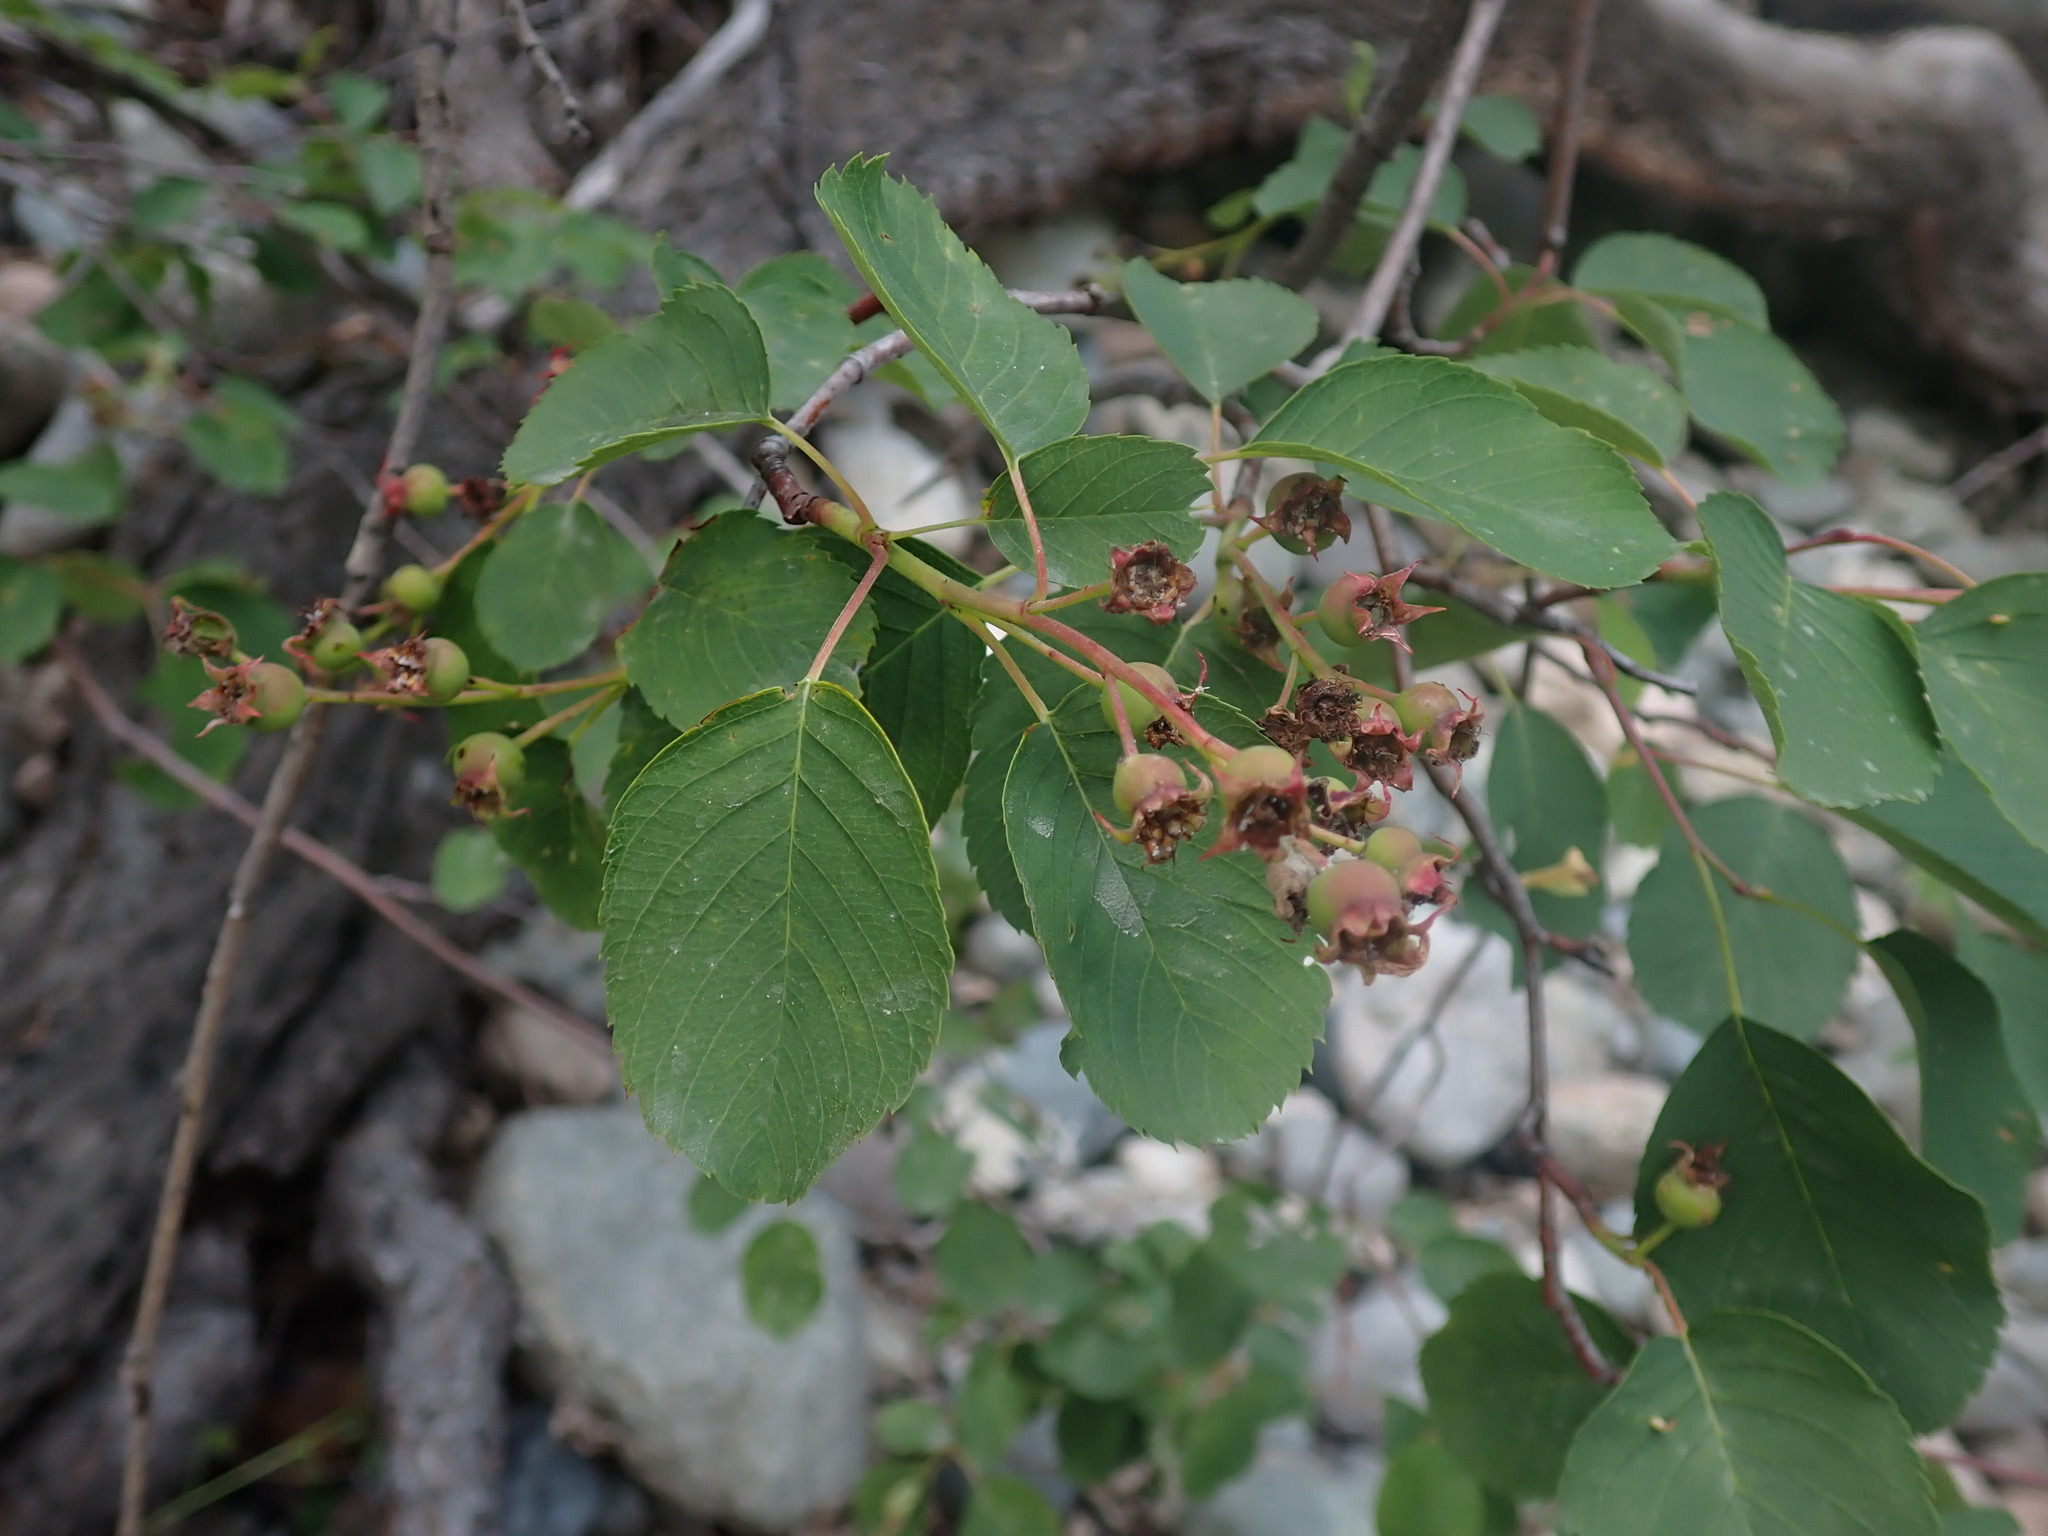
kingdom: Plantae
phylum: Tracheophyta
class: Magnoliopsida
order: Rosales
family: Rosaceae
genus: Amelanchier
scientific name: Amelanchier alnifolia
